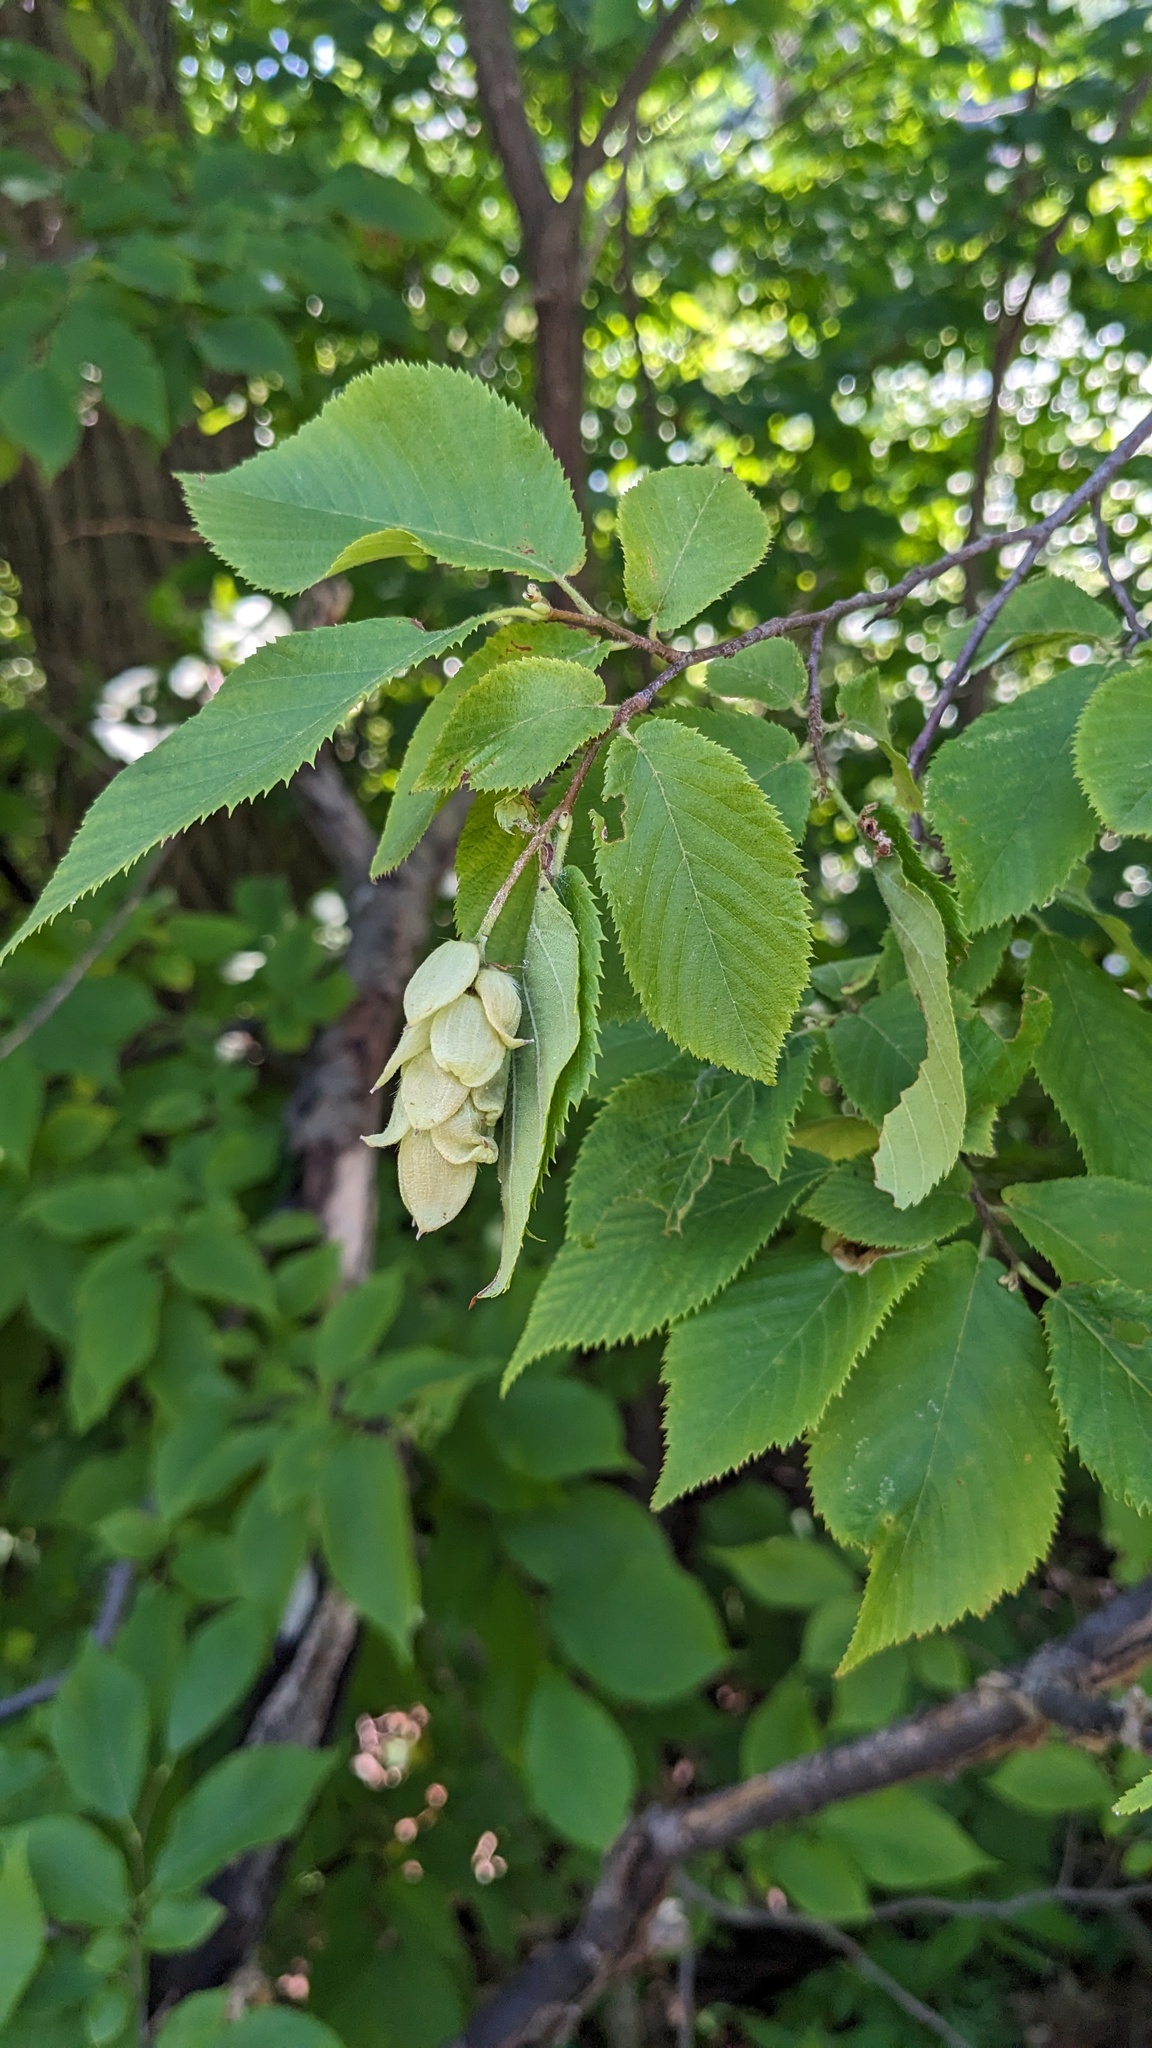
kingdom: Plantae
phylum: Tracheophyta
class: Magnoliopsida
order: Fagales
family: Betulaceae
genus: Ostrya
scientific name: Ostrya virginiana
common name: Ironwood
